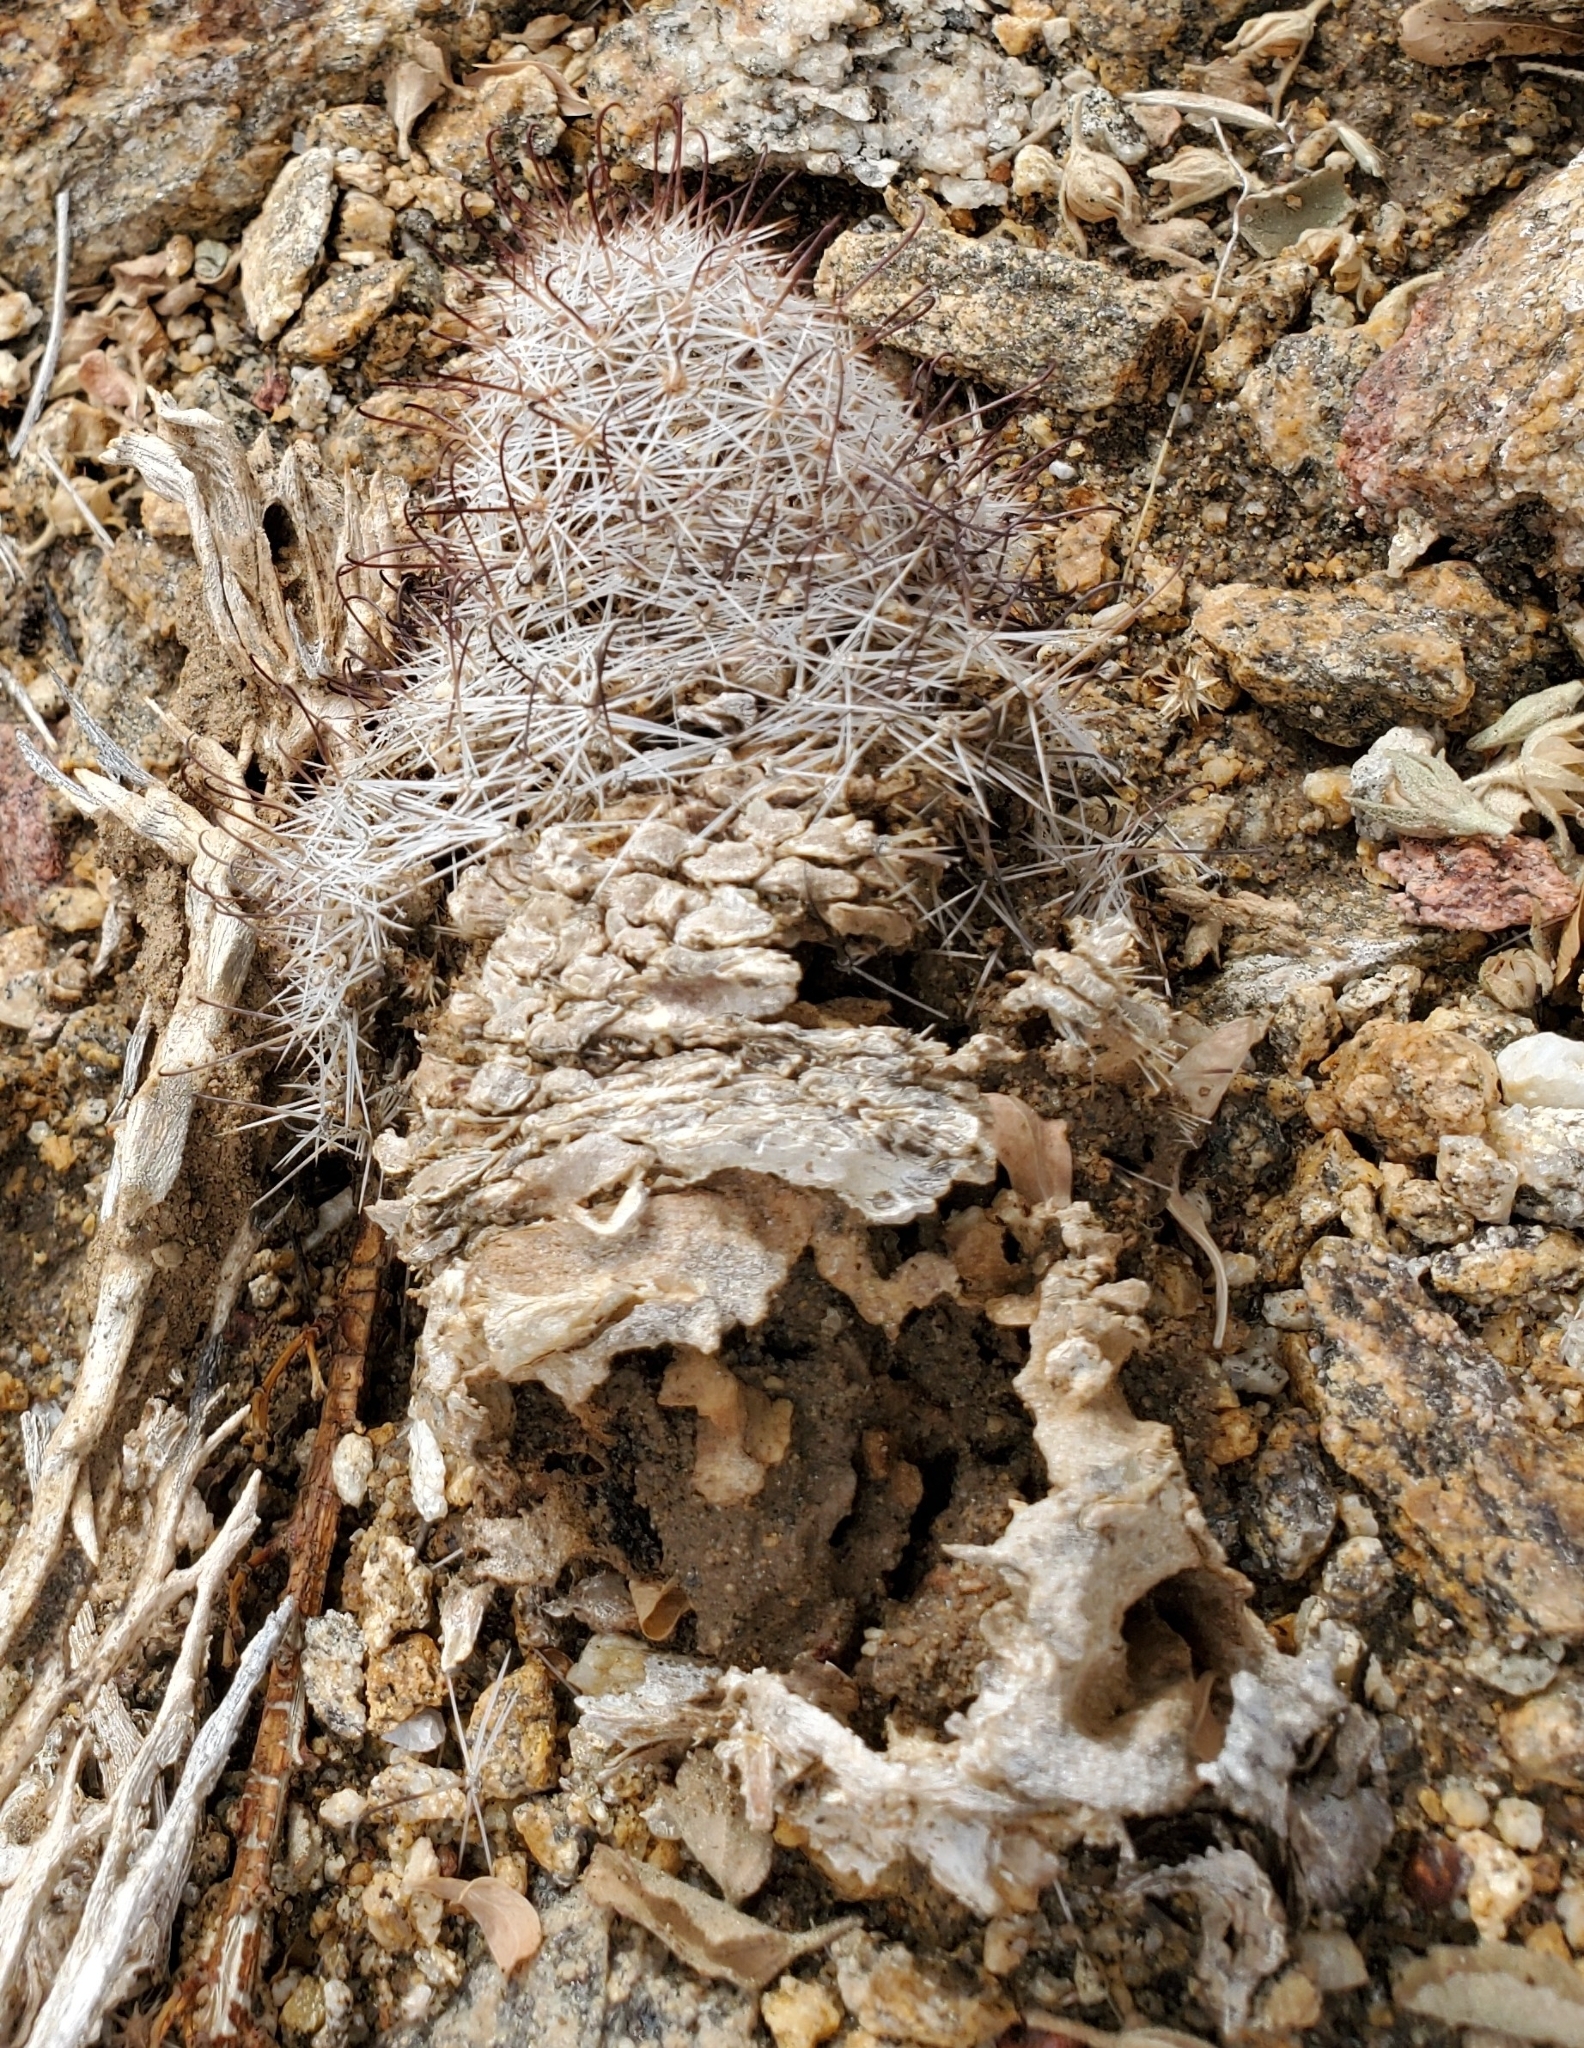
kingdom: Plantae
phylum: Tracheophyta
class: Magnoliopsida
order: Caryophyllales
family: Cactaceae
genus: Cochemiea
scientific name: Cochemiea dioica
